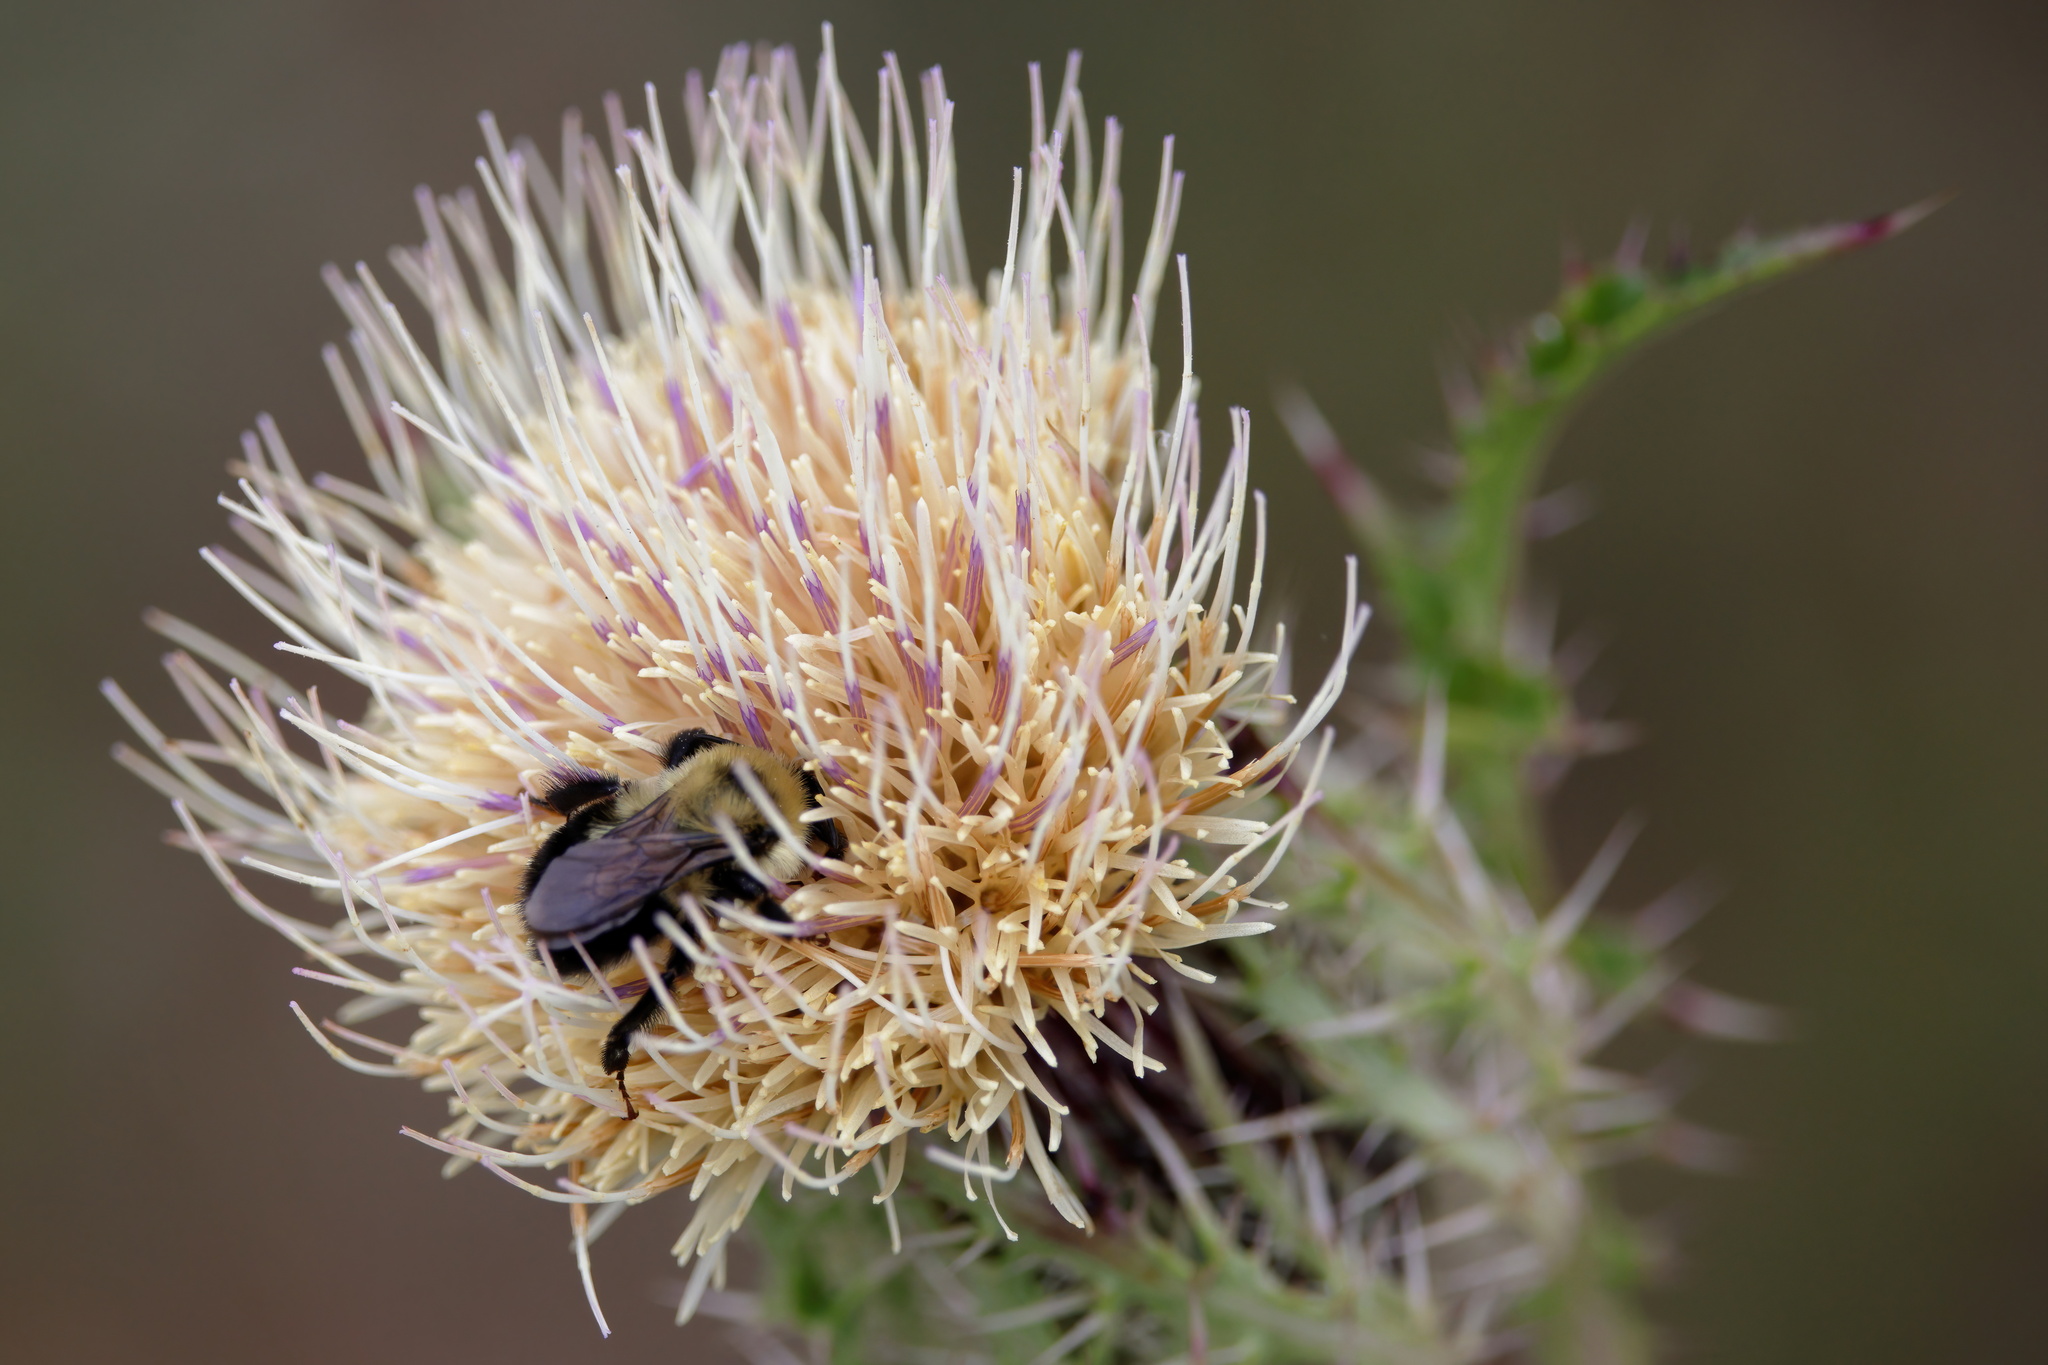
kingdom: Animalia
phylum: Arthropoda
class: Insecta
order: Hymenoptera
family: Apidae
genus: Bombus
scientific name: Bombus bimaculatus
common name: Two-spotted bumble bee
